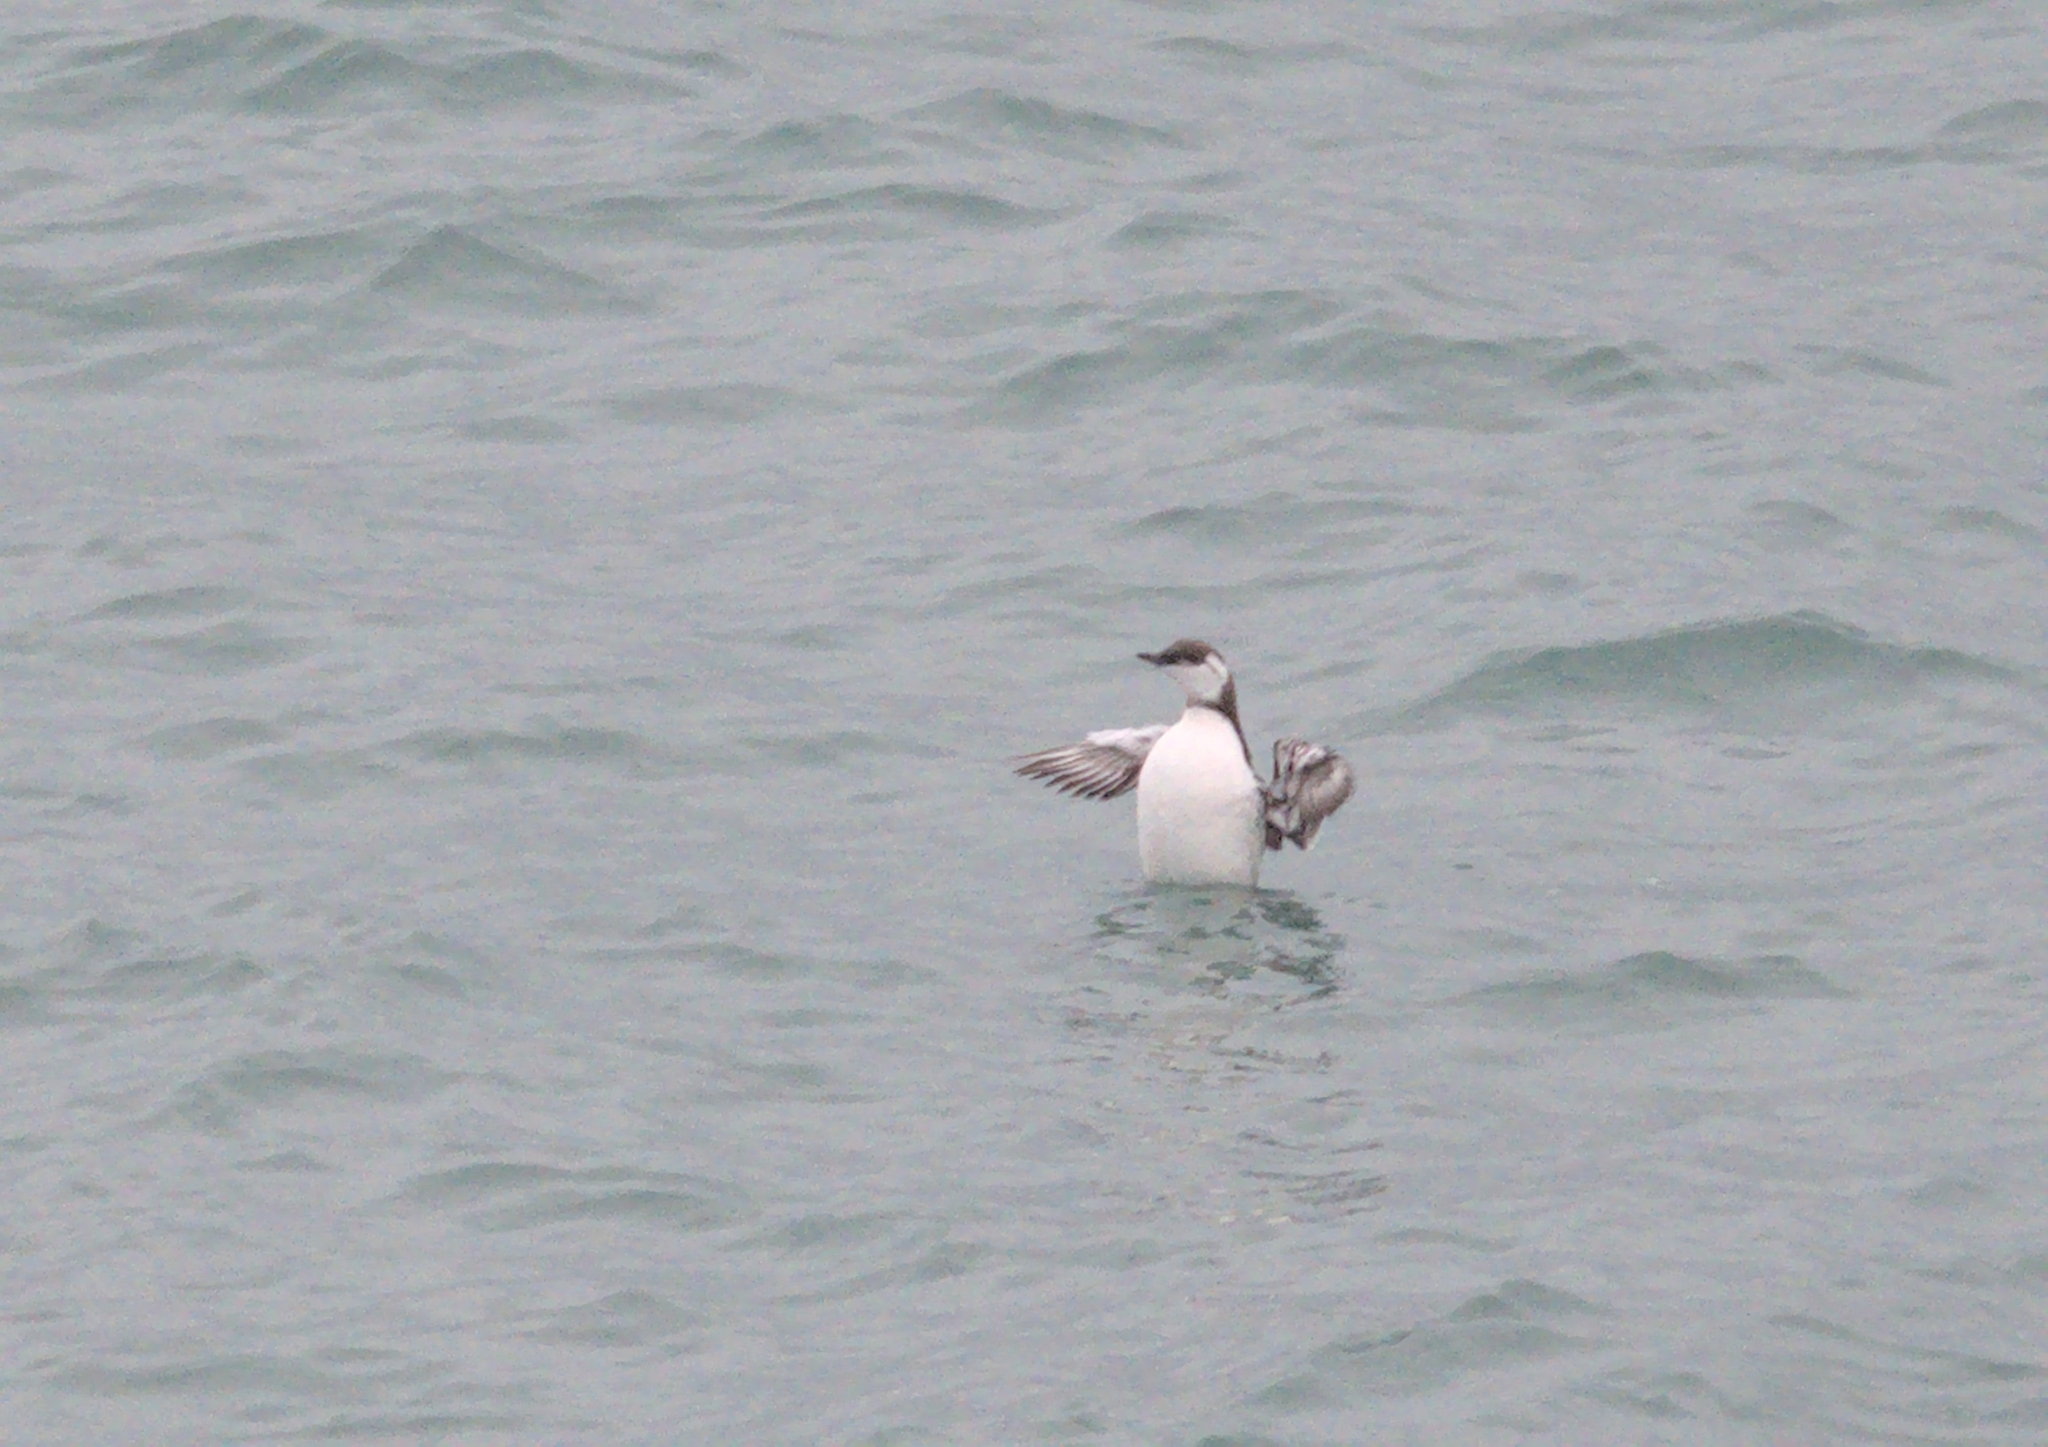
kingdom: Animalia
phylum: Chordata
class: Aves
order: Charadriiformes
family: Alcidae
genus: Uria
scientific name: Uria aalge
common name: Common murre
